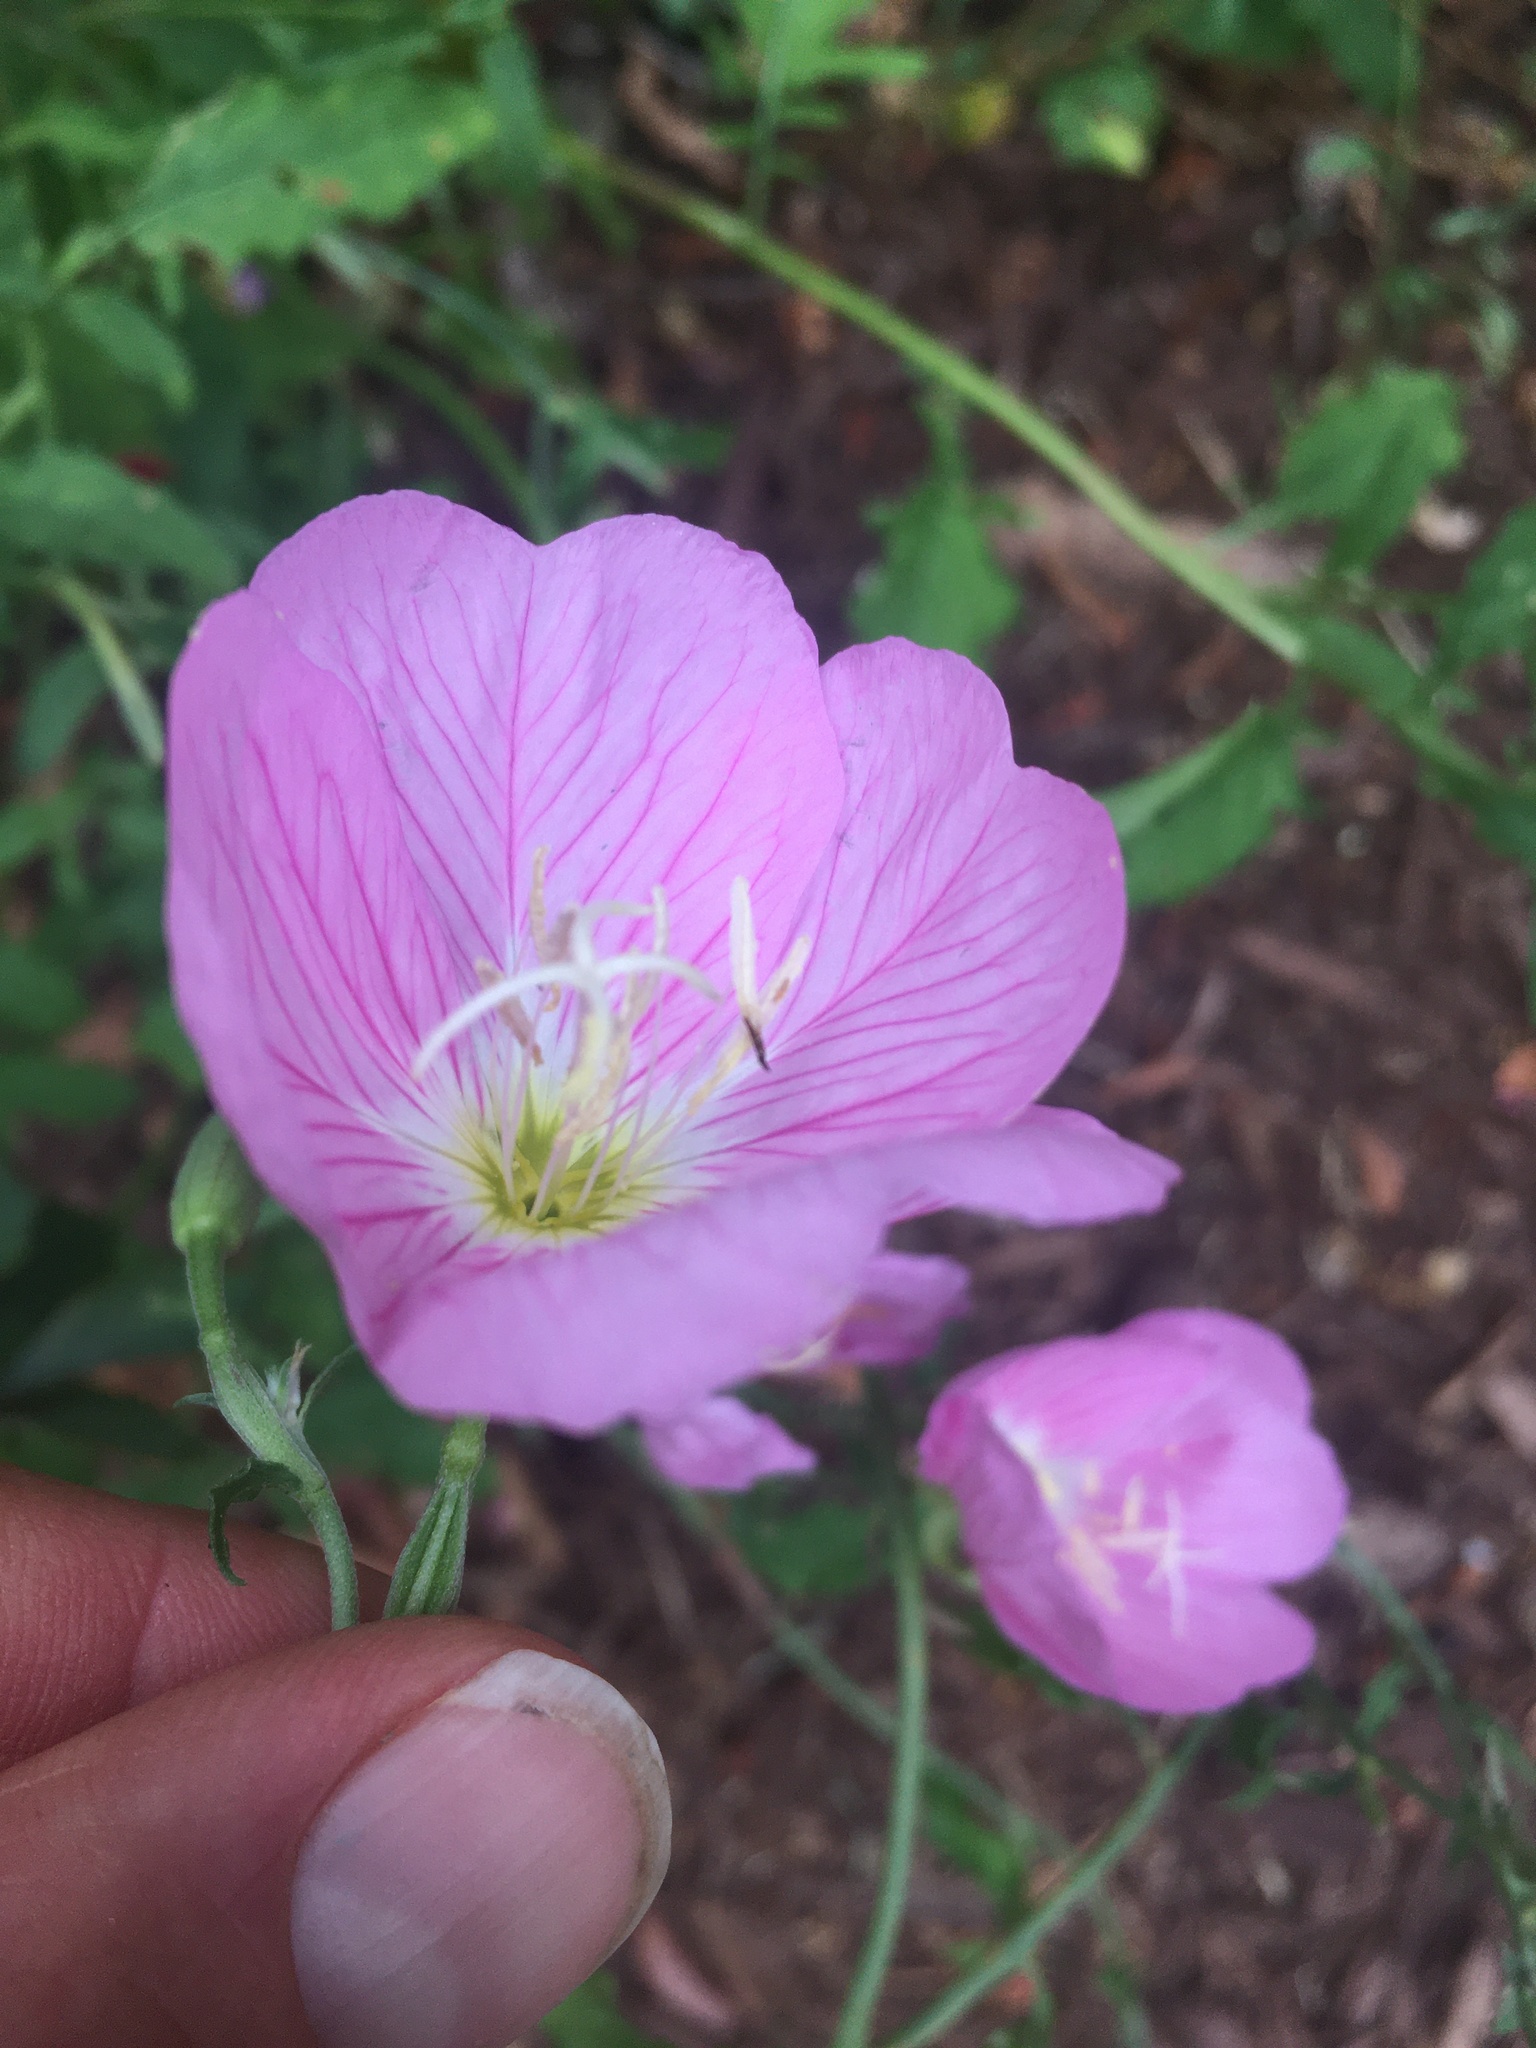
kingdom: Plantae
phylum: Tracheophyta
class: Magnoliopsida
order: Myrtales
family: Onagraceae
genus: Oenothera
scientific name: Oenothera speciosa
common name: White evening-primrose
